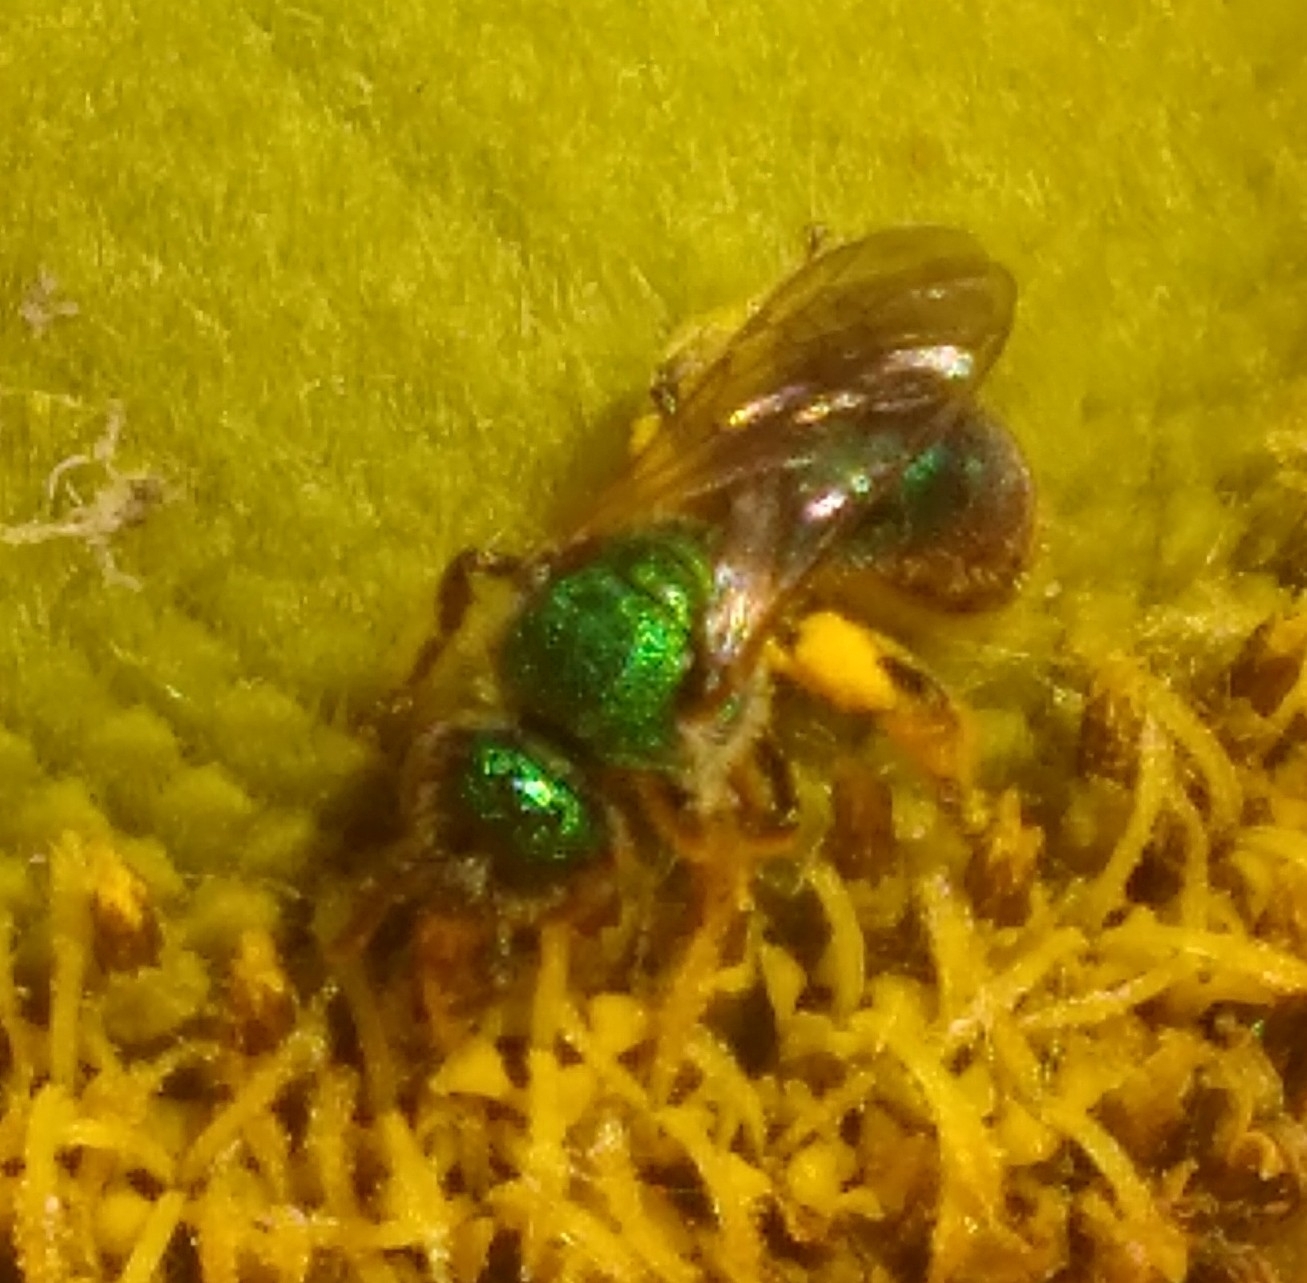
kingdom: Animalia
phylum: Arthropoda
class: Insecta
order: Hymenoptera
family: Halictidae
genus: Augochlorella
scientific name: Augochlorella aurata
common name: Golden sweat bee
